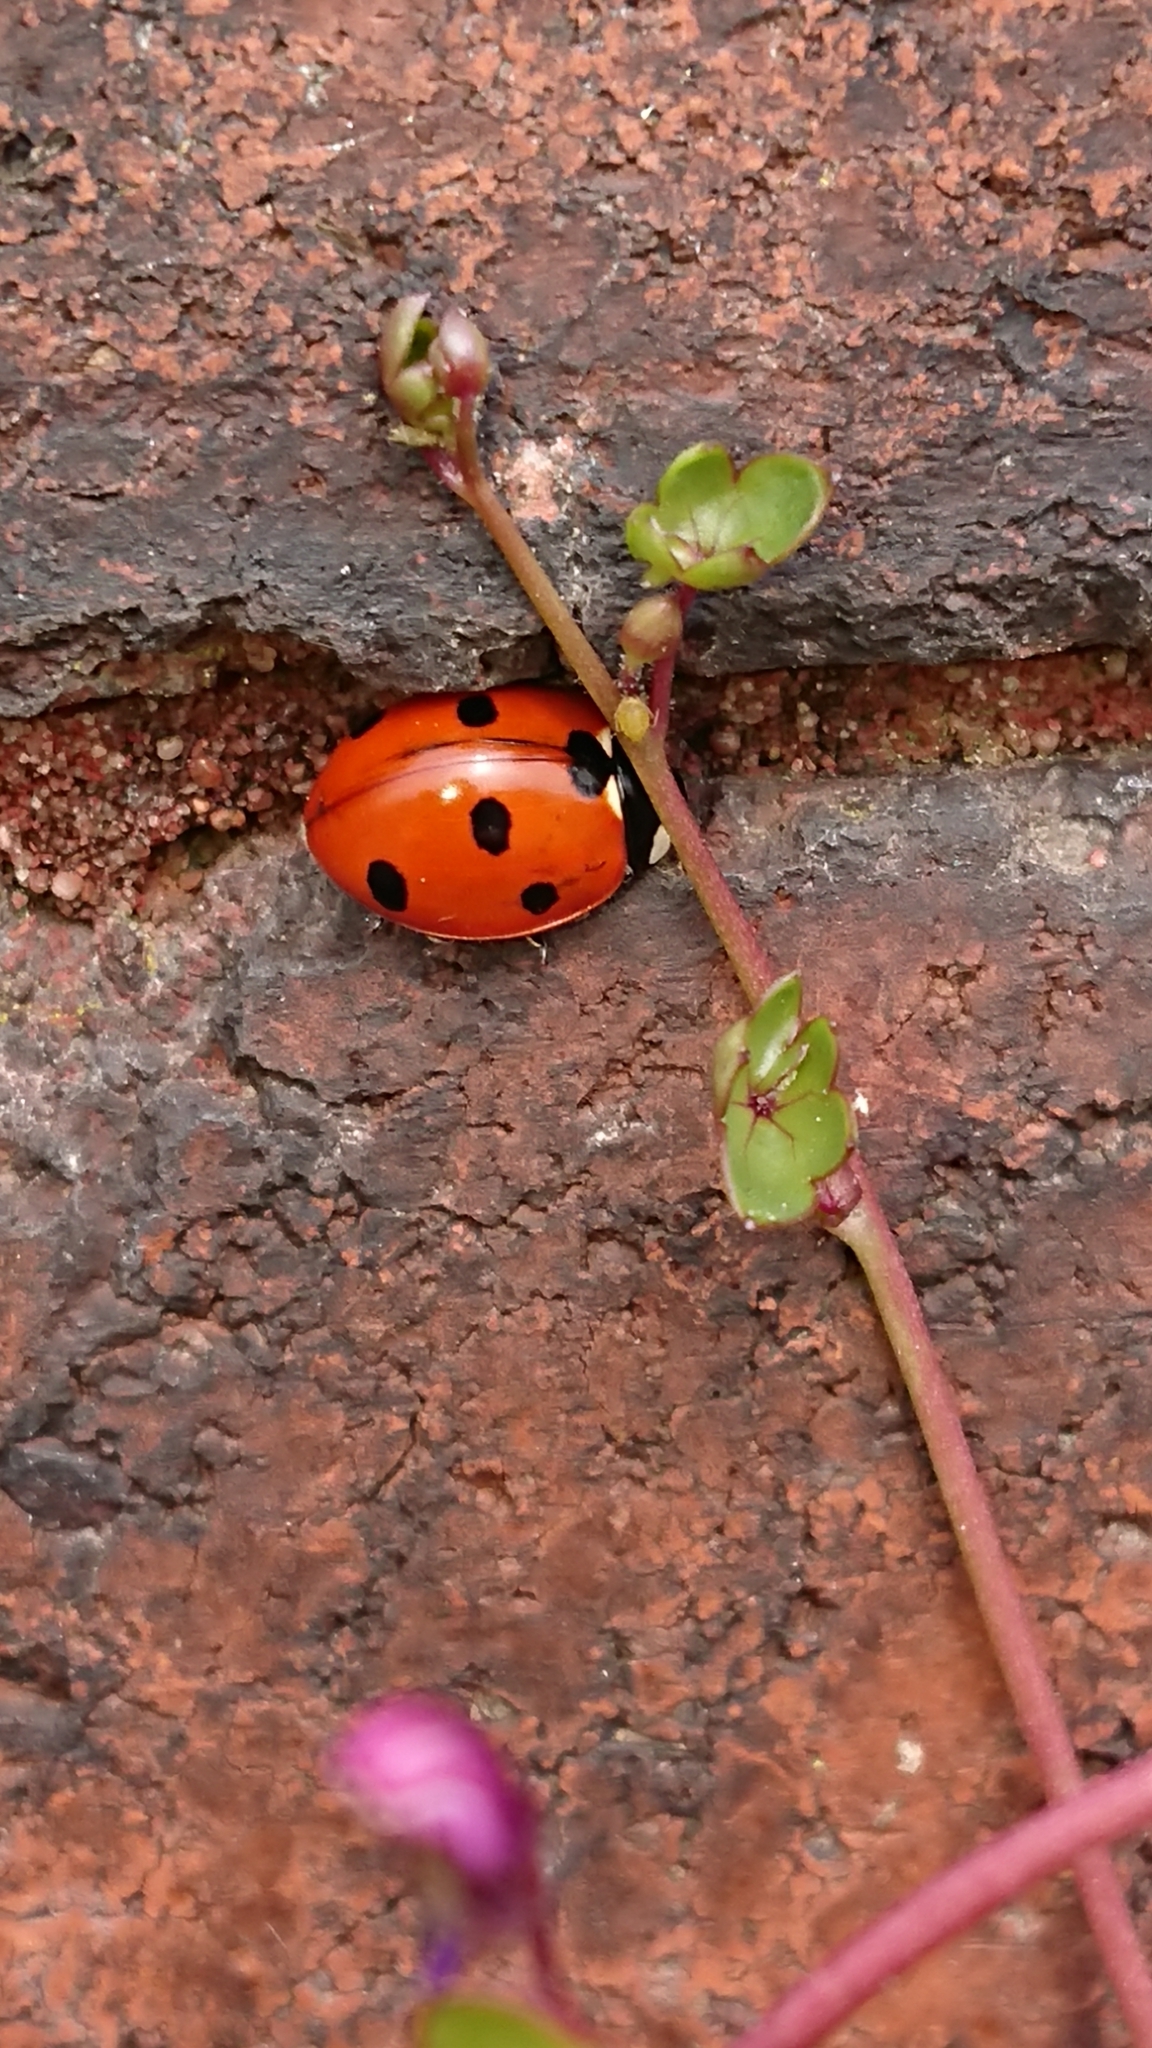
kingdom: Animalia
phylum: Arthropoda
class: Insecta
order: Coleoptera
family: Coccinellidae
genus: Coccinella
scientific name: Coccinella septempunctata
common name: Sevenspotted lady beetle
